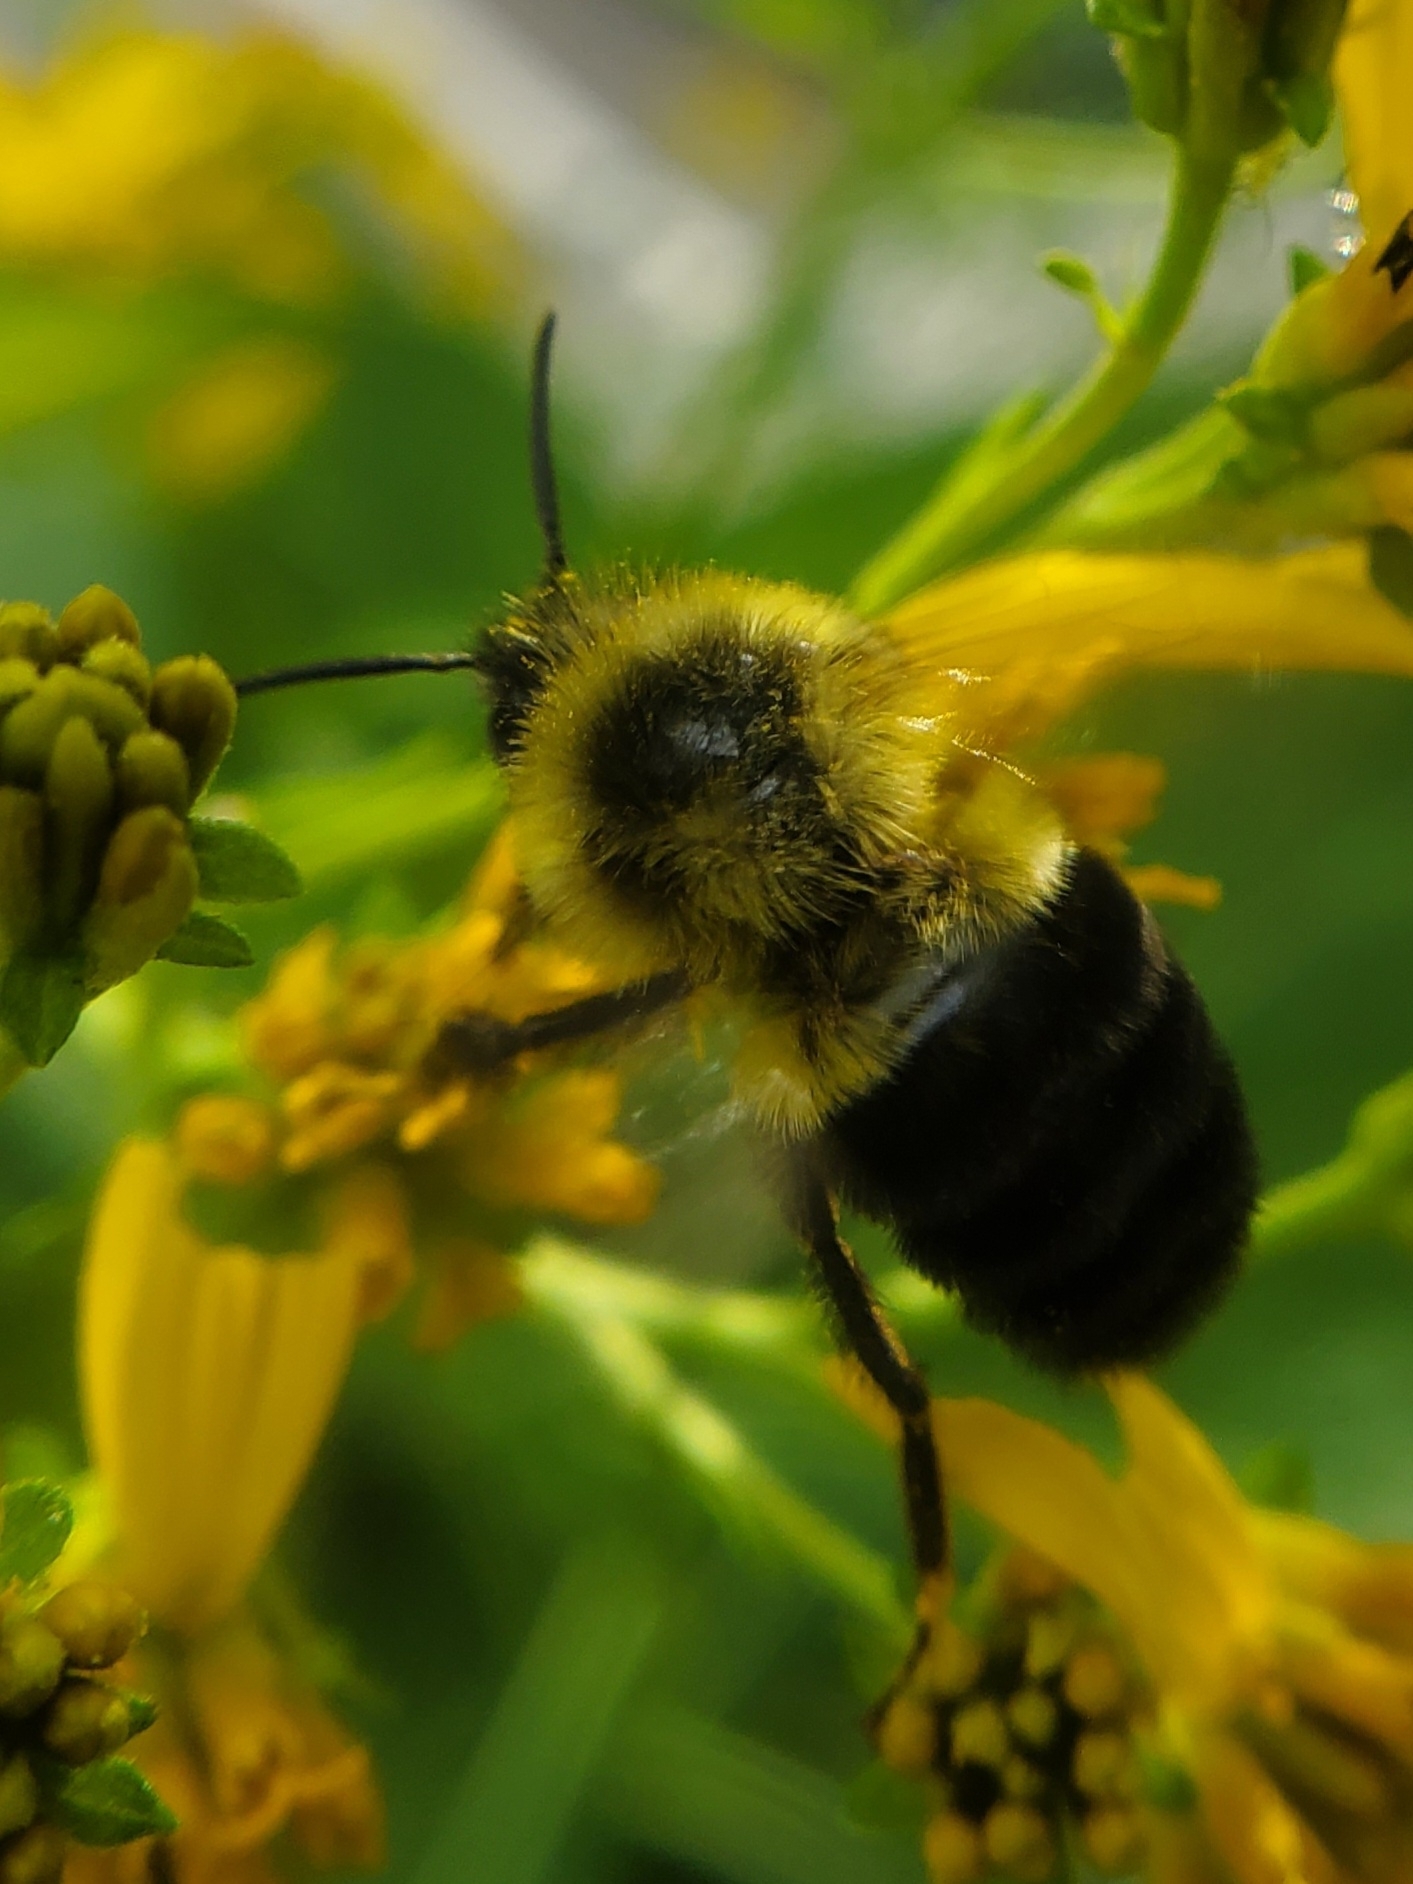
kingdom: Animalia
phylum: Arthropoda
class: Insecta
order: Hymenoptera
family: Apidae
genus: Bombus
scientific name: Bombus impatiens
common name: Common eastern bumble bee
